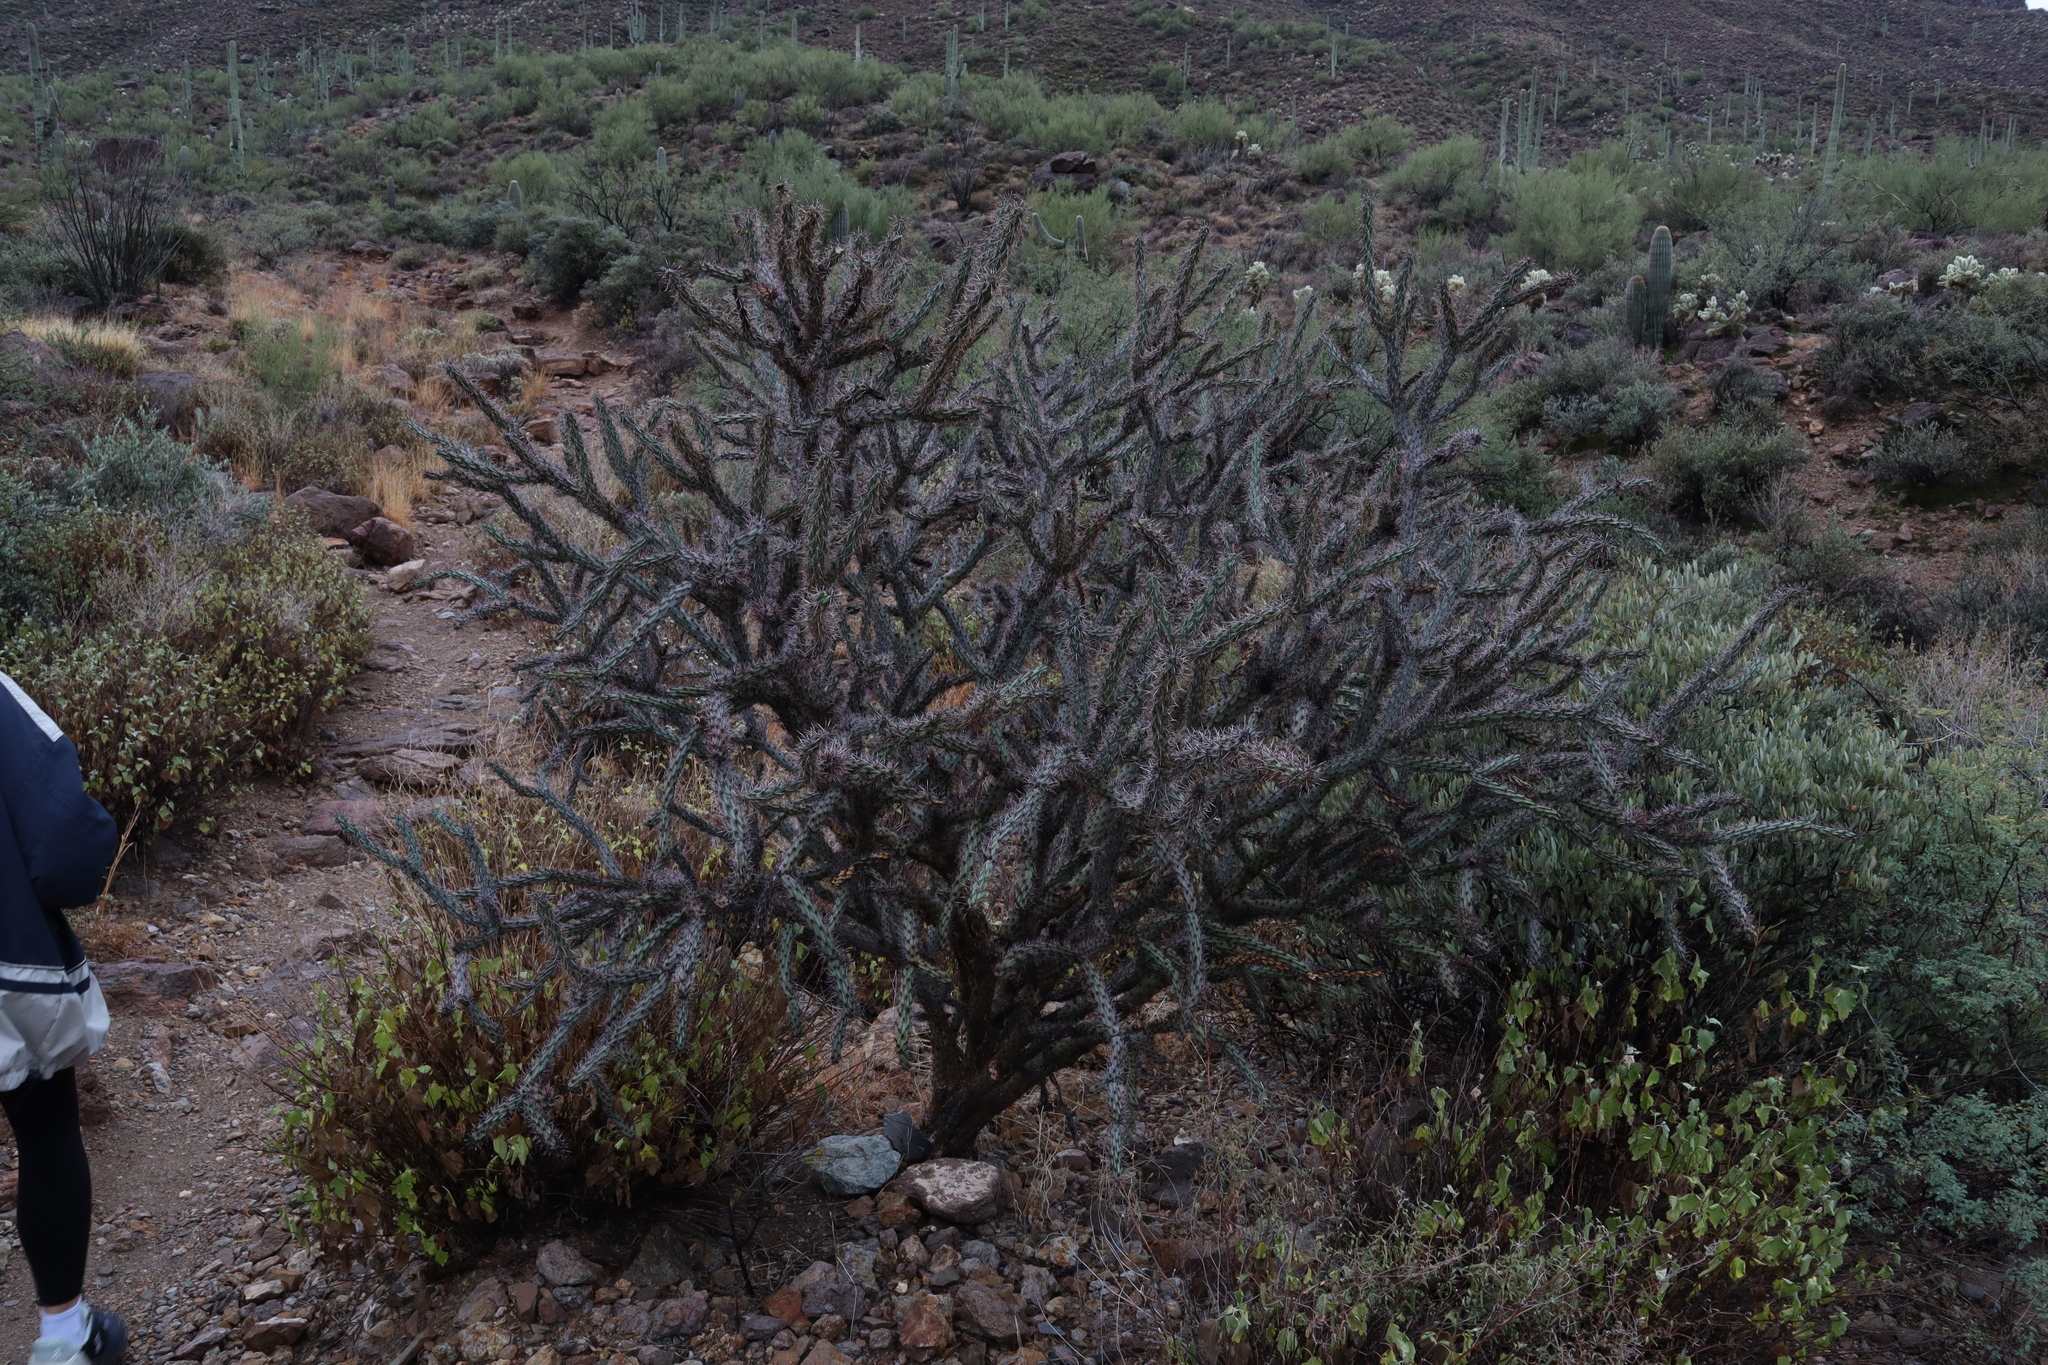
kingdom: Plantae
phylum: Tracheophyta
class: Magnoliopsida
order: Caryophyllales
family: Cactaceae
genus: Cylindropuntia
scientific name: Cylindropuntia acanthocarpa
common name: Buckhorn cholla
